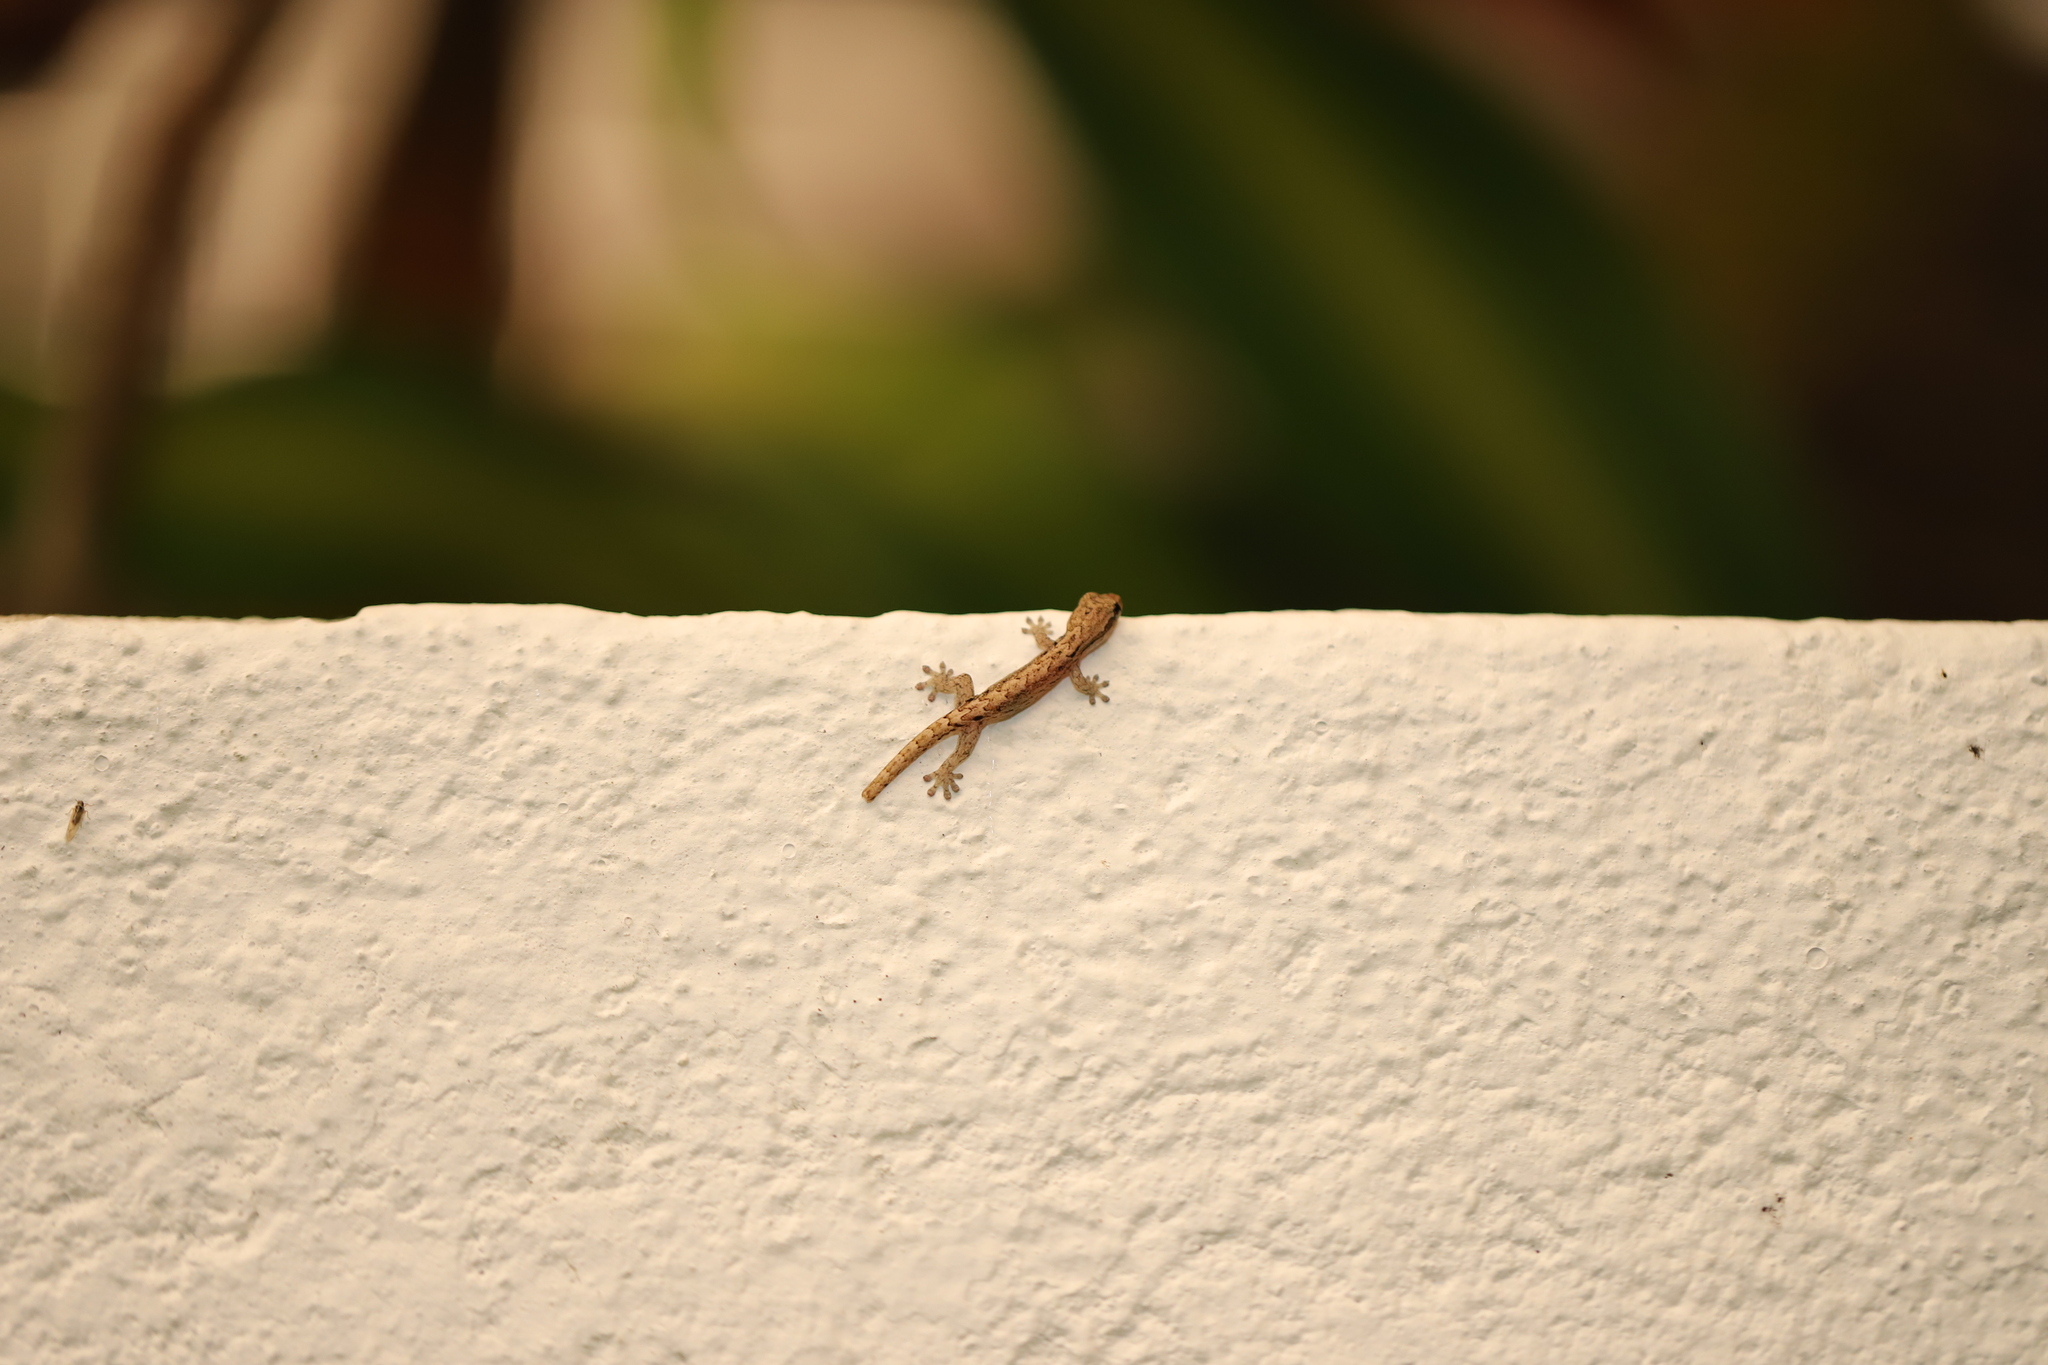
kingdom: Animalia
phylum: Chordata
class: Squamata
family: Gekkonidae
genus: Lepidodactylus
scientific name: Lepidodactylus lugubris
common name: Mourning gecko
